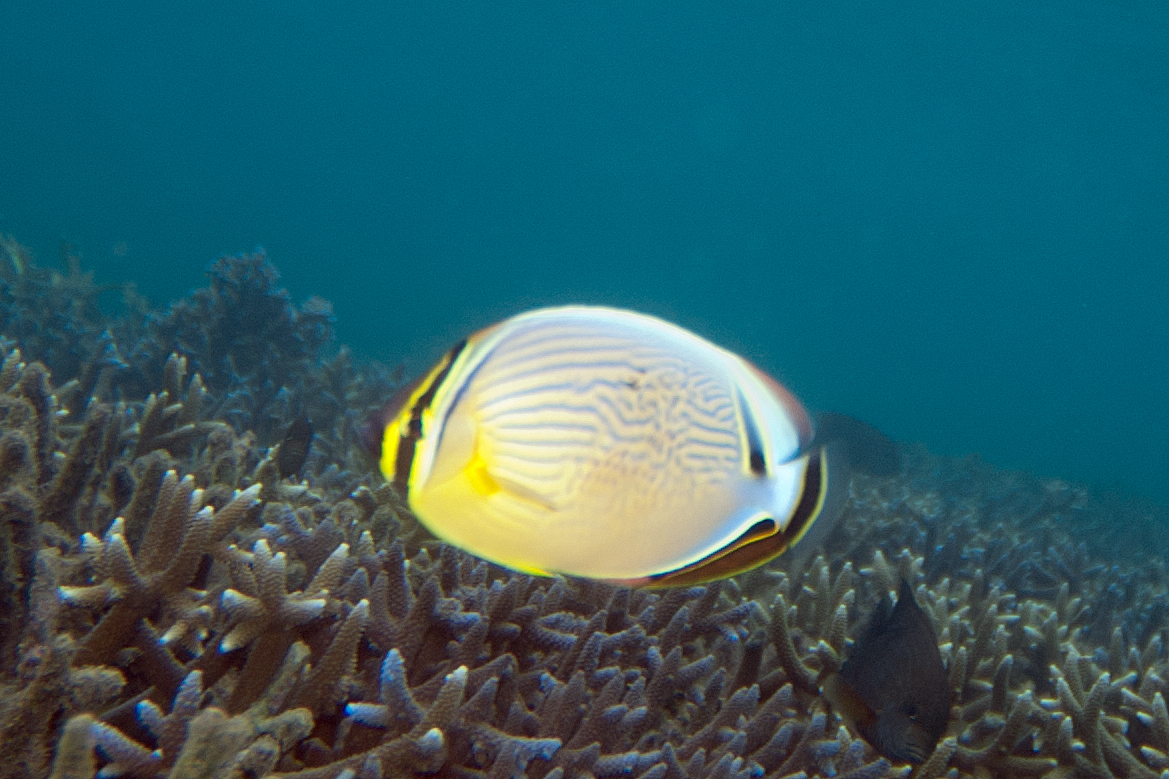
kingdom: Animalia
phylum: Chordata
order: Perciformes
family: Chaetodontidae
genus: Chaetodon
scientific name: Chaetodon lunulatus
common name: Redfin butterflyfish
